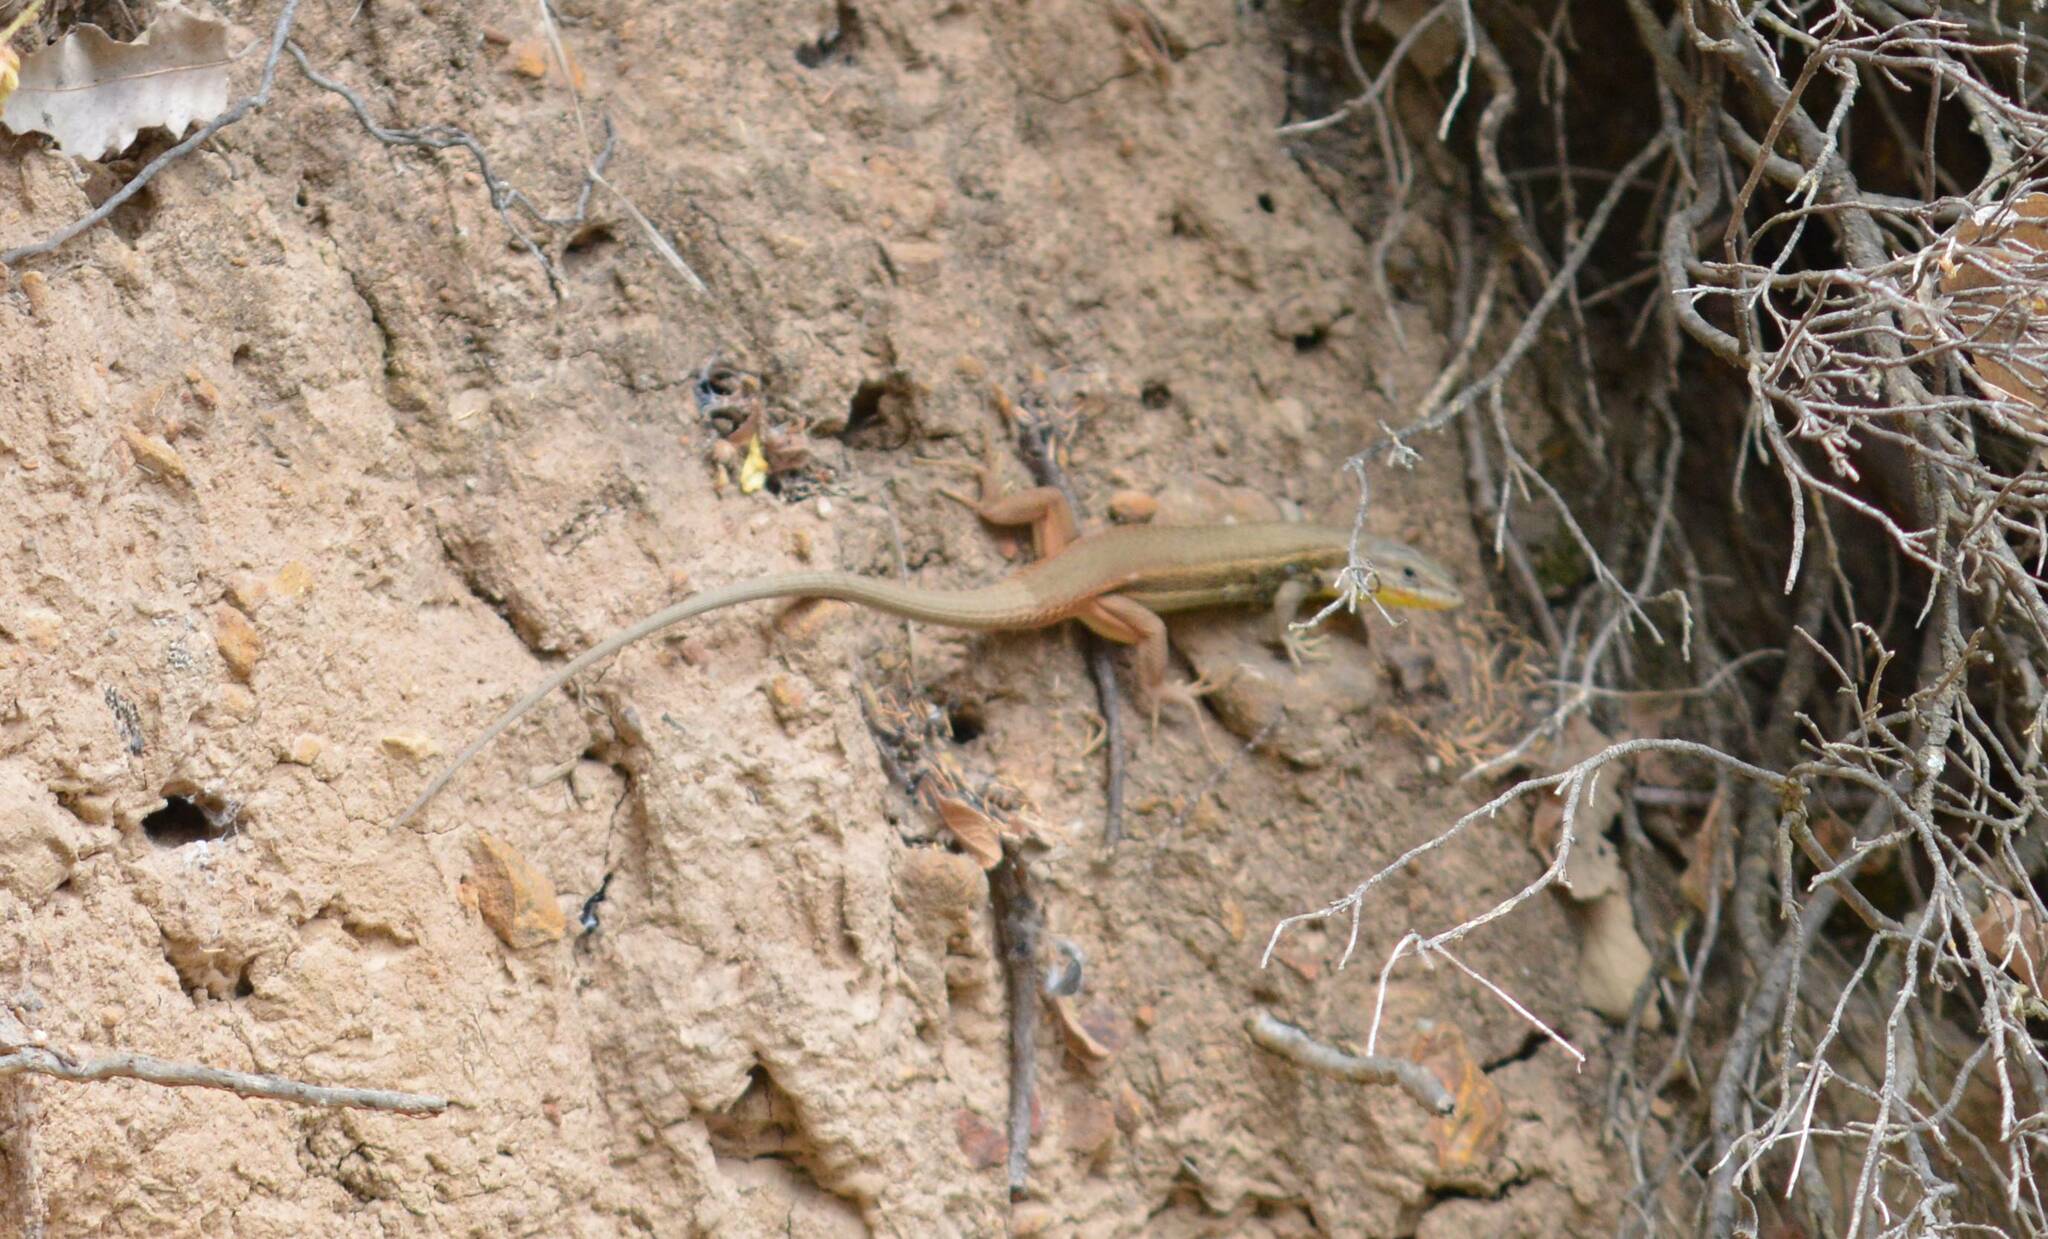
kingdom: Animalia
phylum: Chordata
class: Squamata
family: Lacertidae
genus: Psammodromus
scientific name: Psammodromus algirus
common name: Algerian psammodromus
